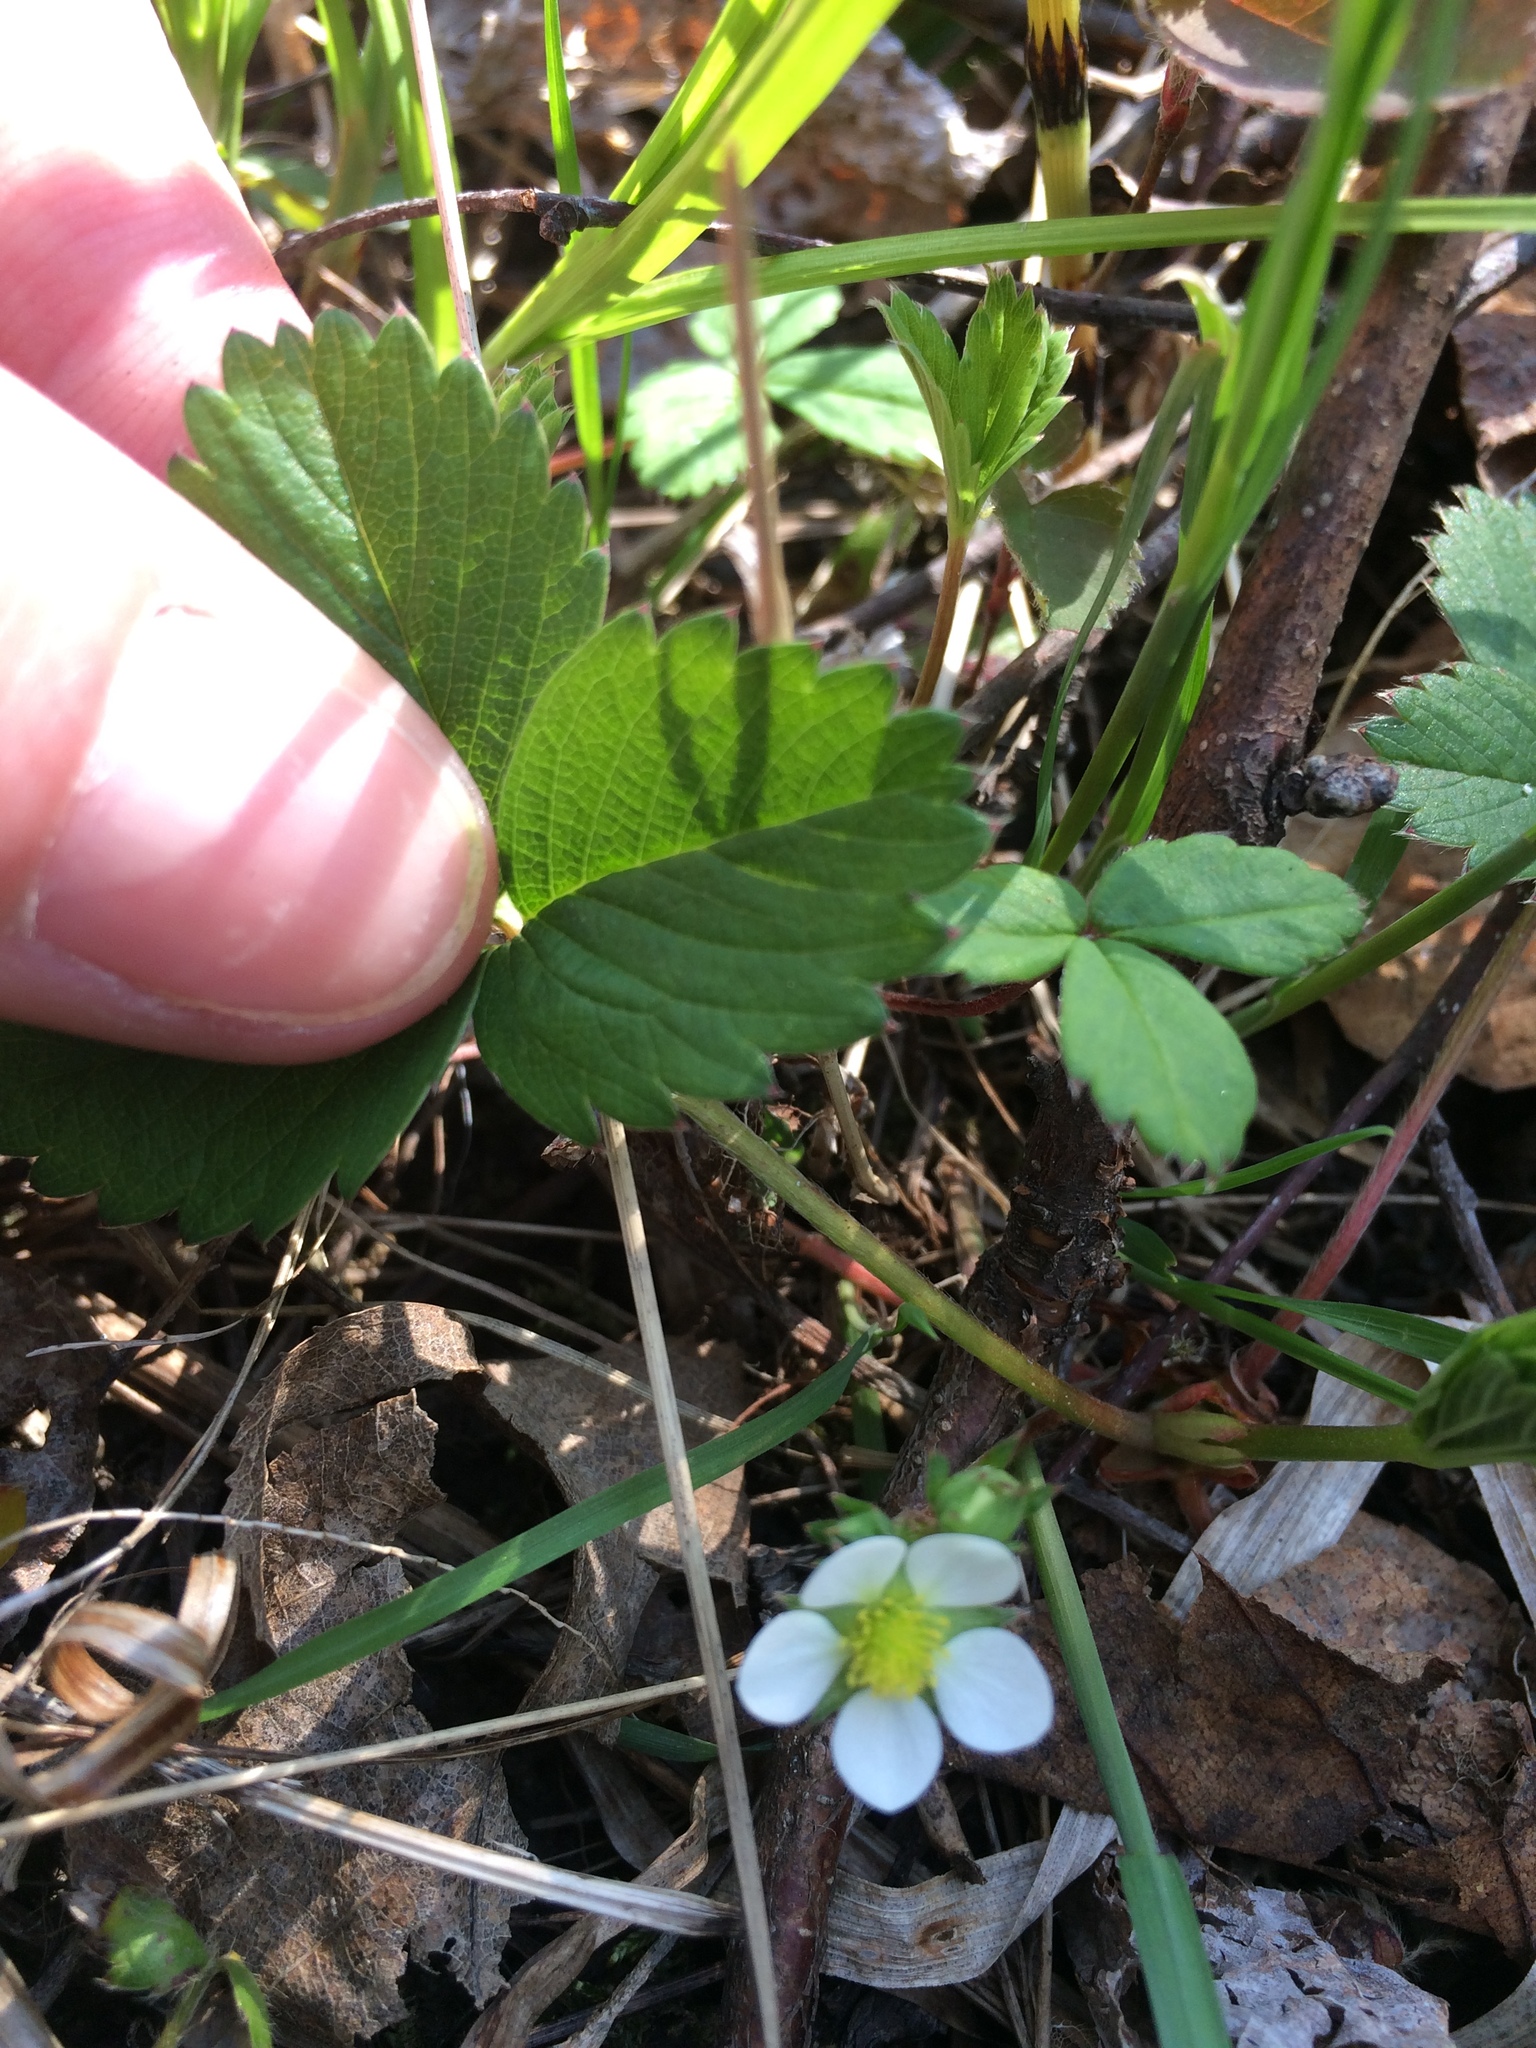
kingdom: Plantae
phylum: Tracheophyta
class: Magnoliopsida
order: Rosales
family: Rosaceae
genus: Fragaria
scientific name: Fragaria virginiana
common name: Thickleaved wild strawberry
